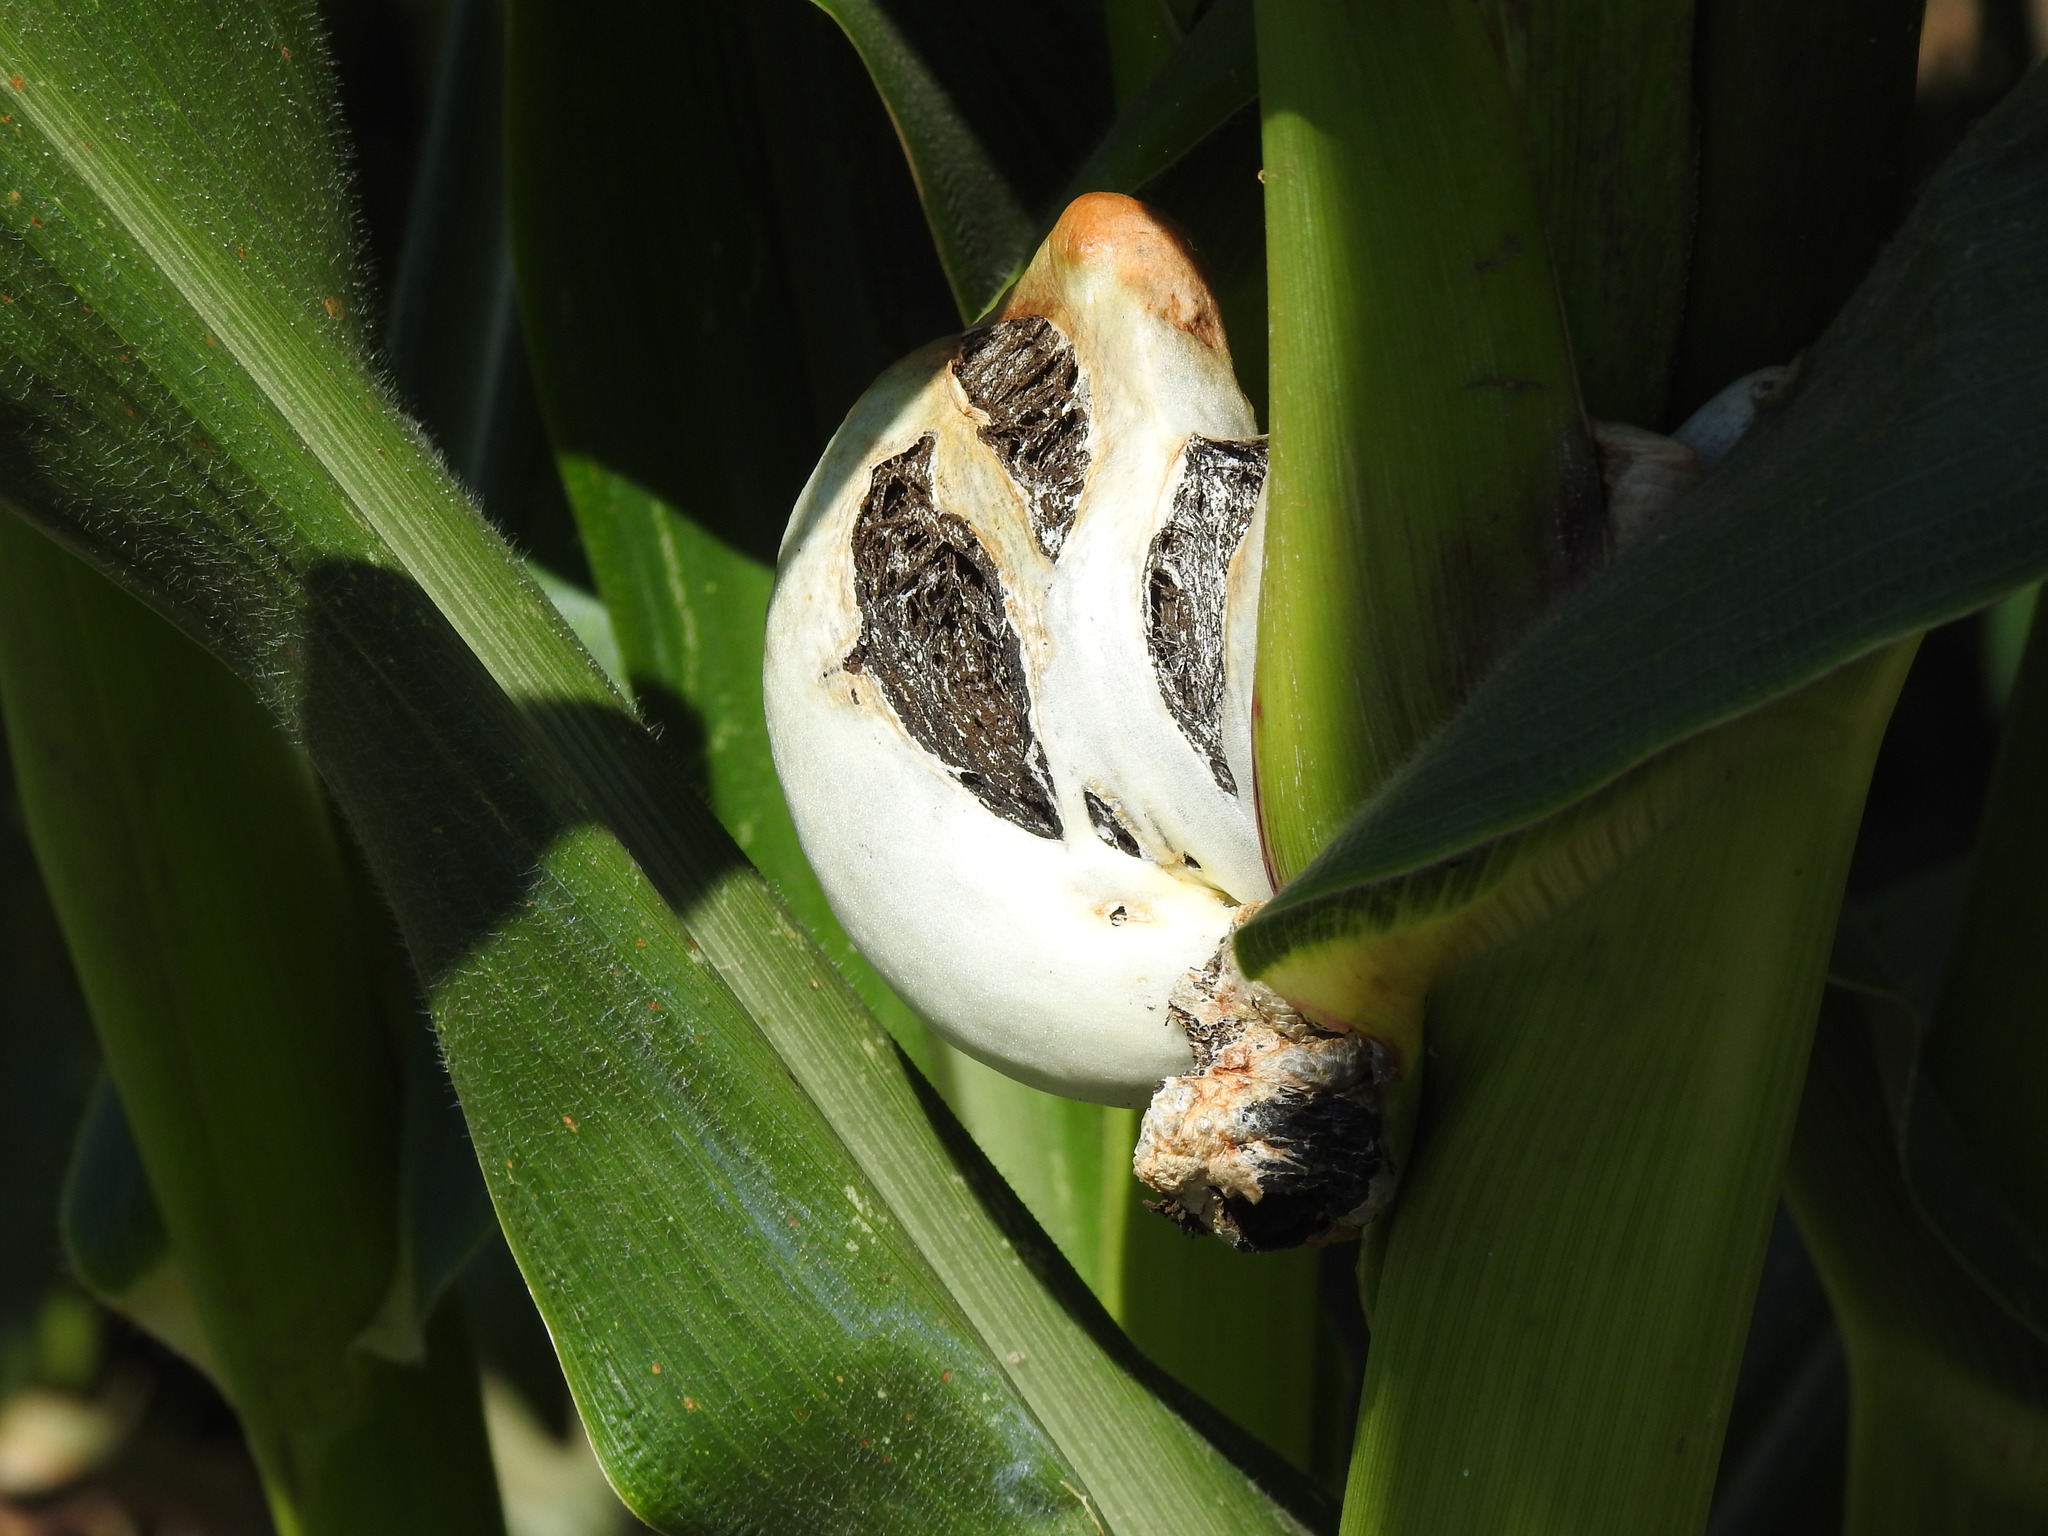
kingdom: Fungi
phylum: Basidiomycota
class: Ustilaginomycetes
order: Ustilaginales
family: Ustilaginaceae
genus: Mycosarcoma
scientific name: Mycosarcoma maydis
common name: Corn smut
